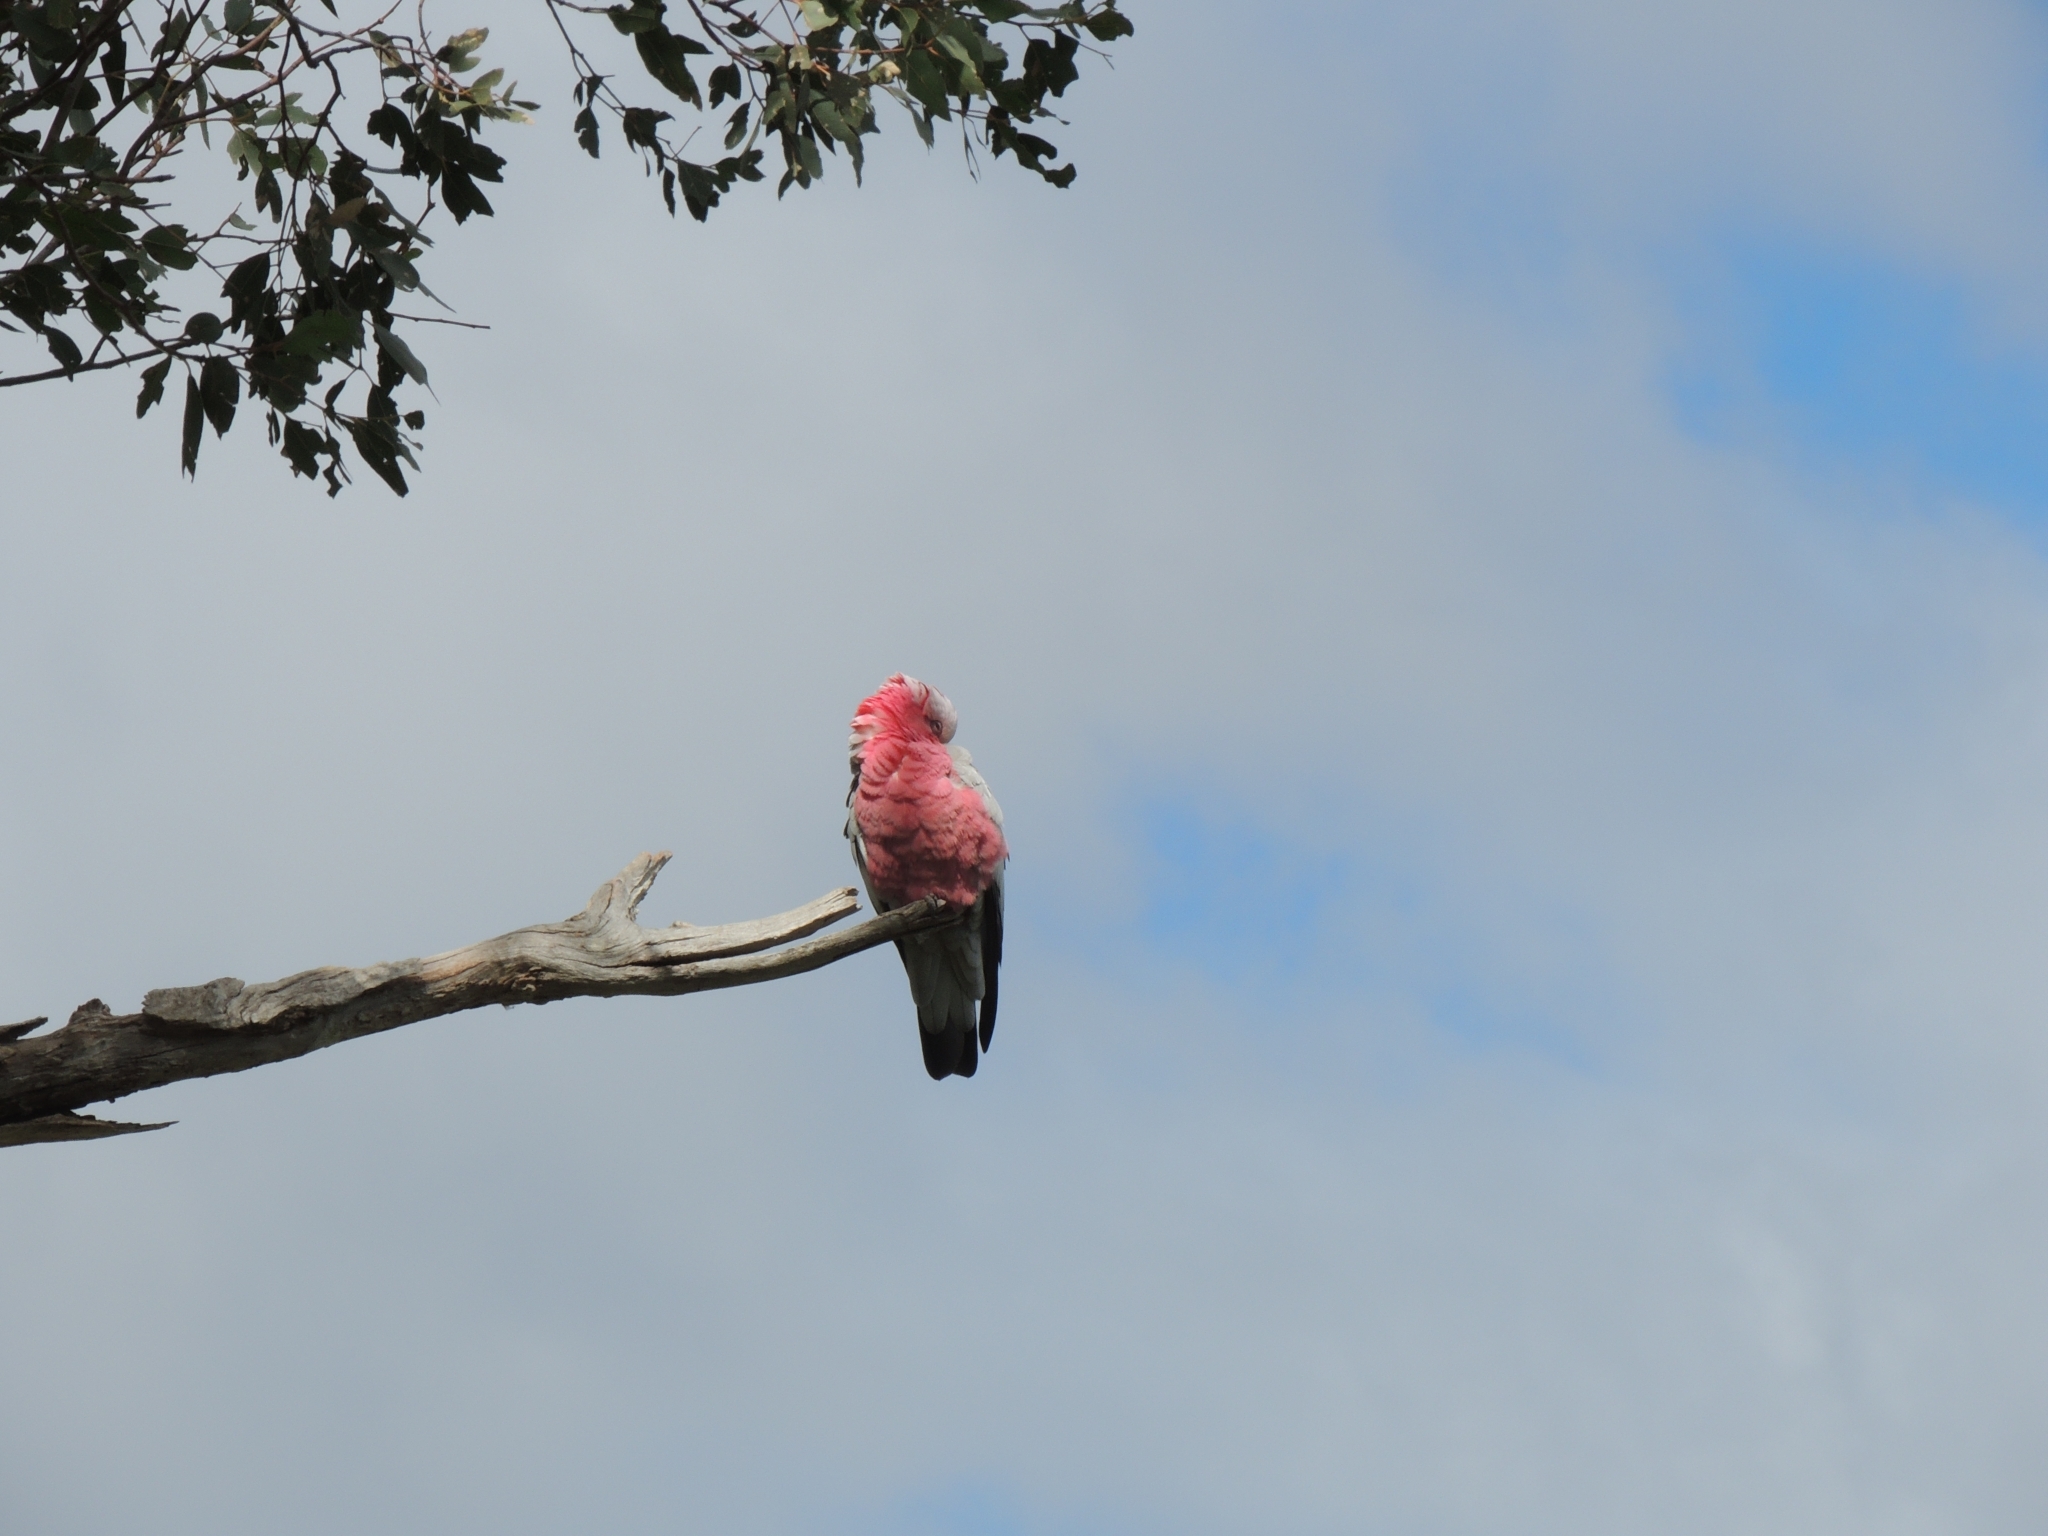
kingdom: Animalia
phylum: Chordata
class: Aves
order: Psittaciformes
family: Psittacidae
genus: Eolophus
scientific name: Eolophus roseicapilla
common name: Galah
